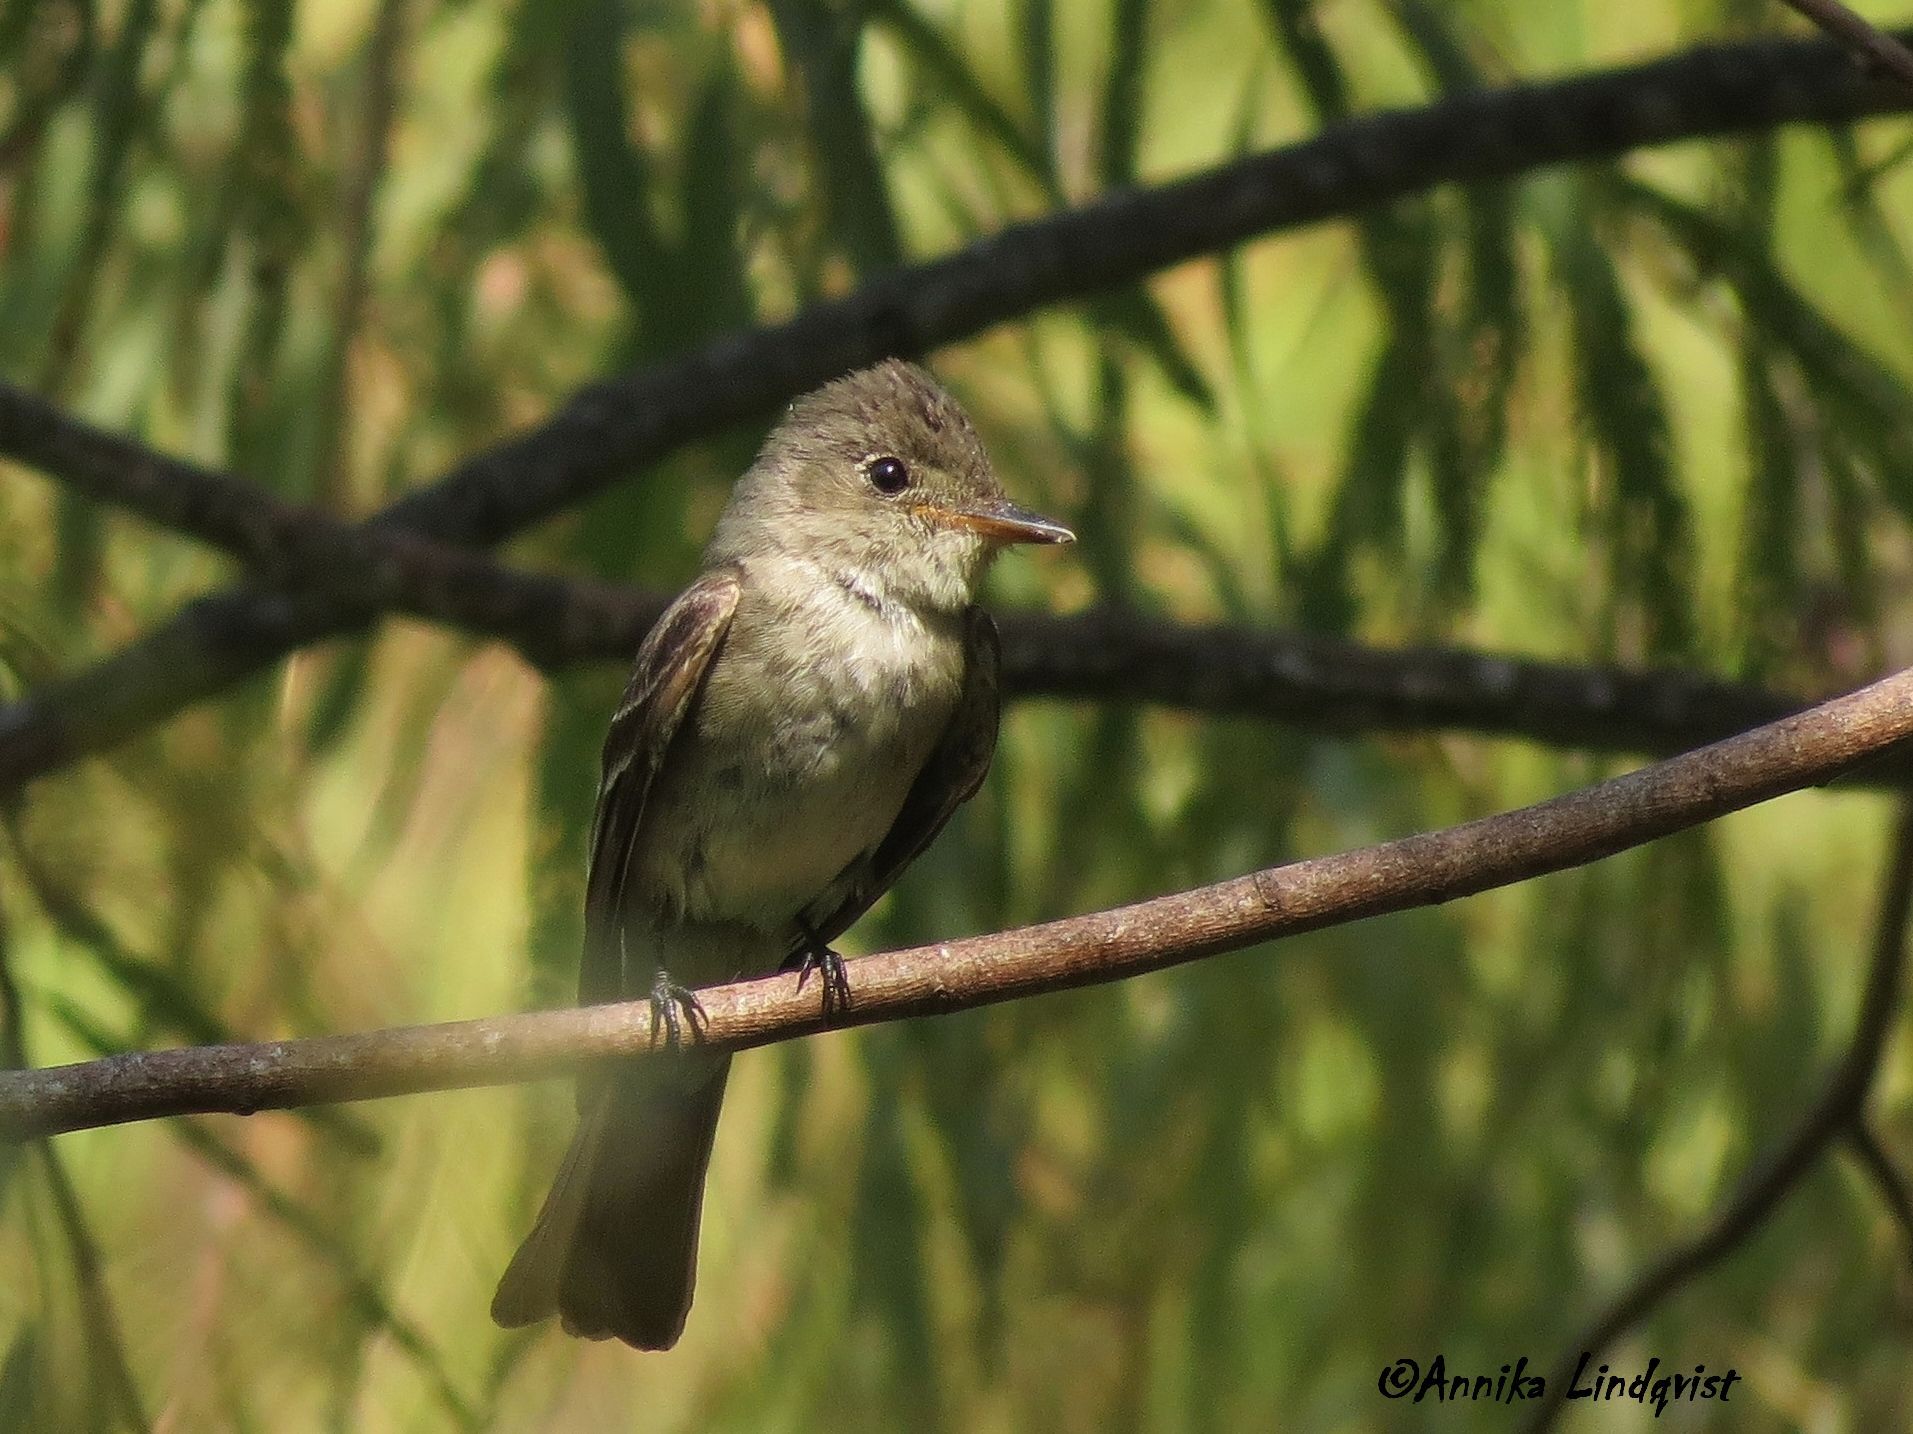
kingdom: Animalia
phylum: Chordata
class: Aves
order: Passeriformes
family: Tyrannidae
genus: Contopus
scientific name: Contopus virens
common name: Eastern wood-pewee
